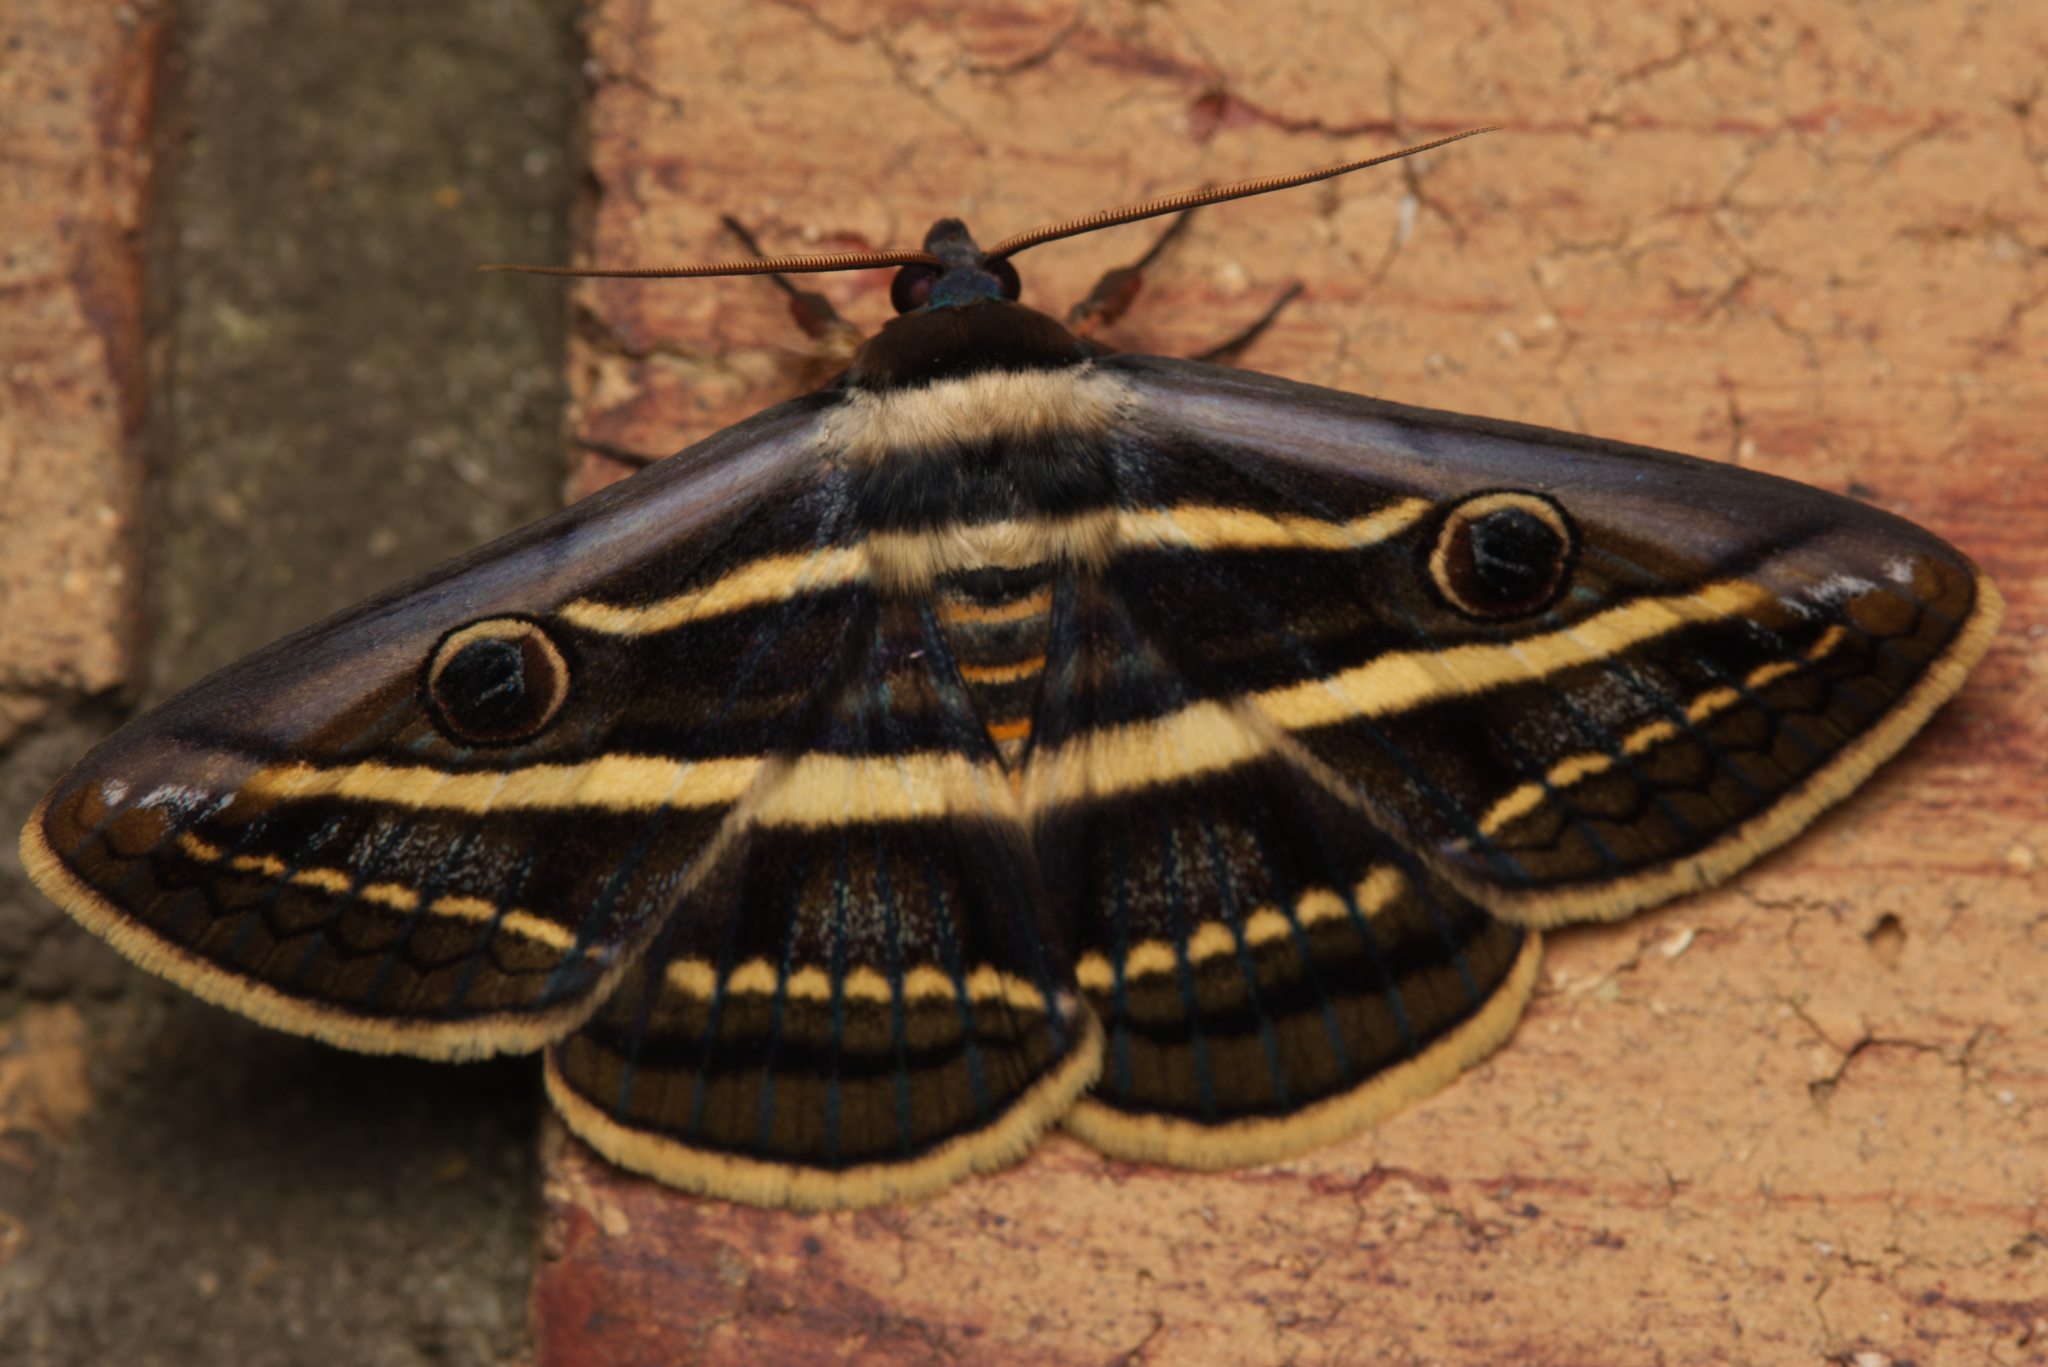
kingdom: Animalia
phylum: Arthropoda
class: Insecta
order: Lepidoptera
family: Erebidae
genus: Donuca
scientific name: Donuca orbigera
